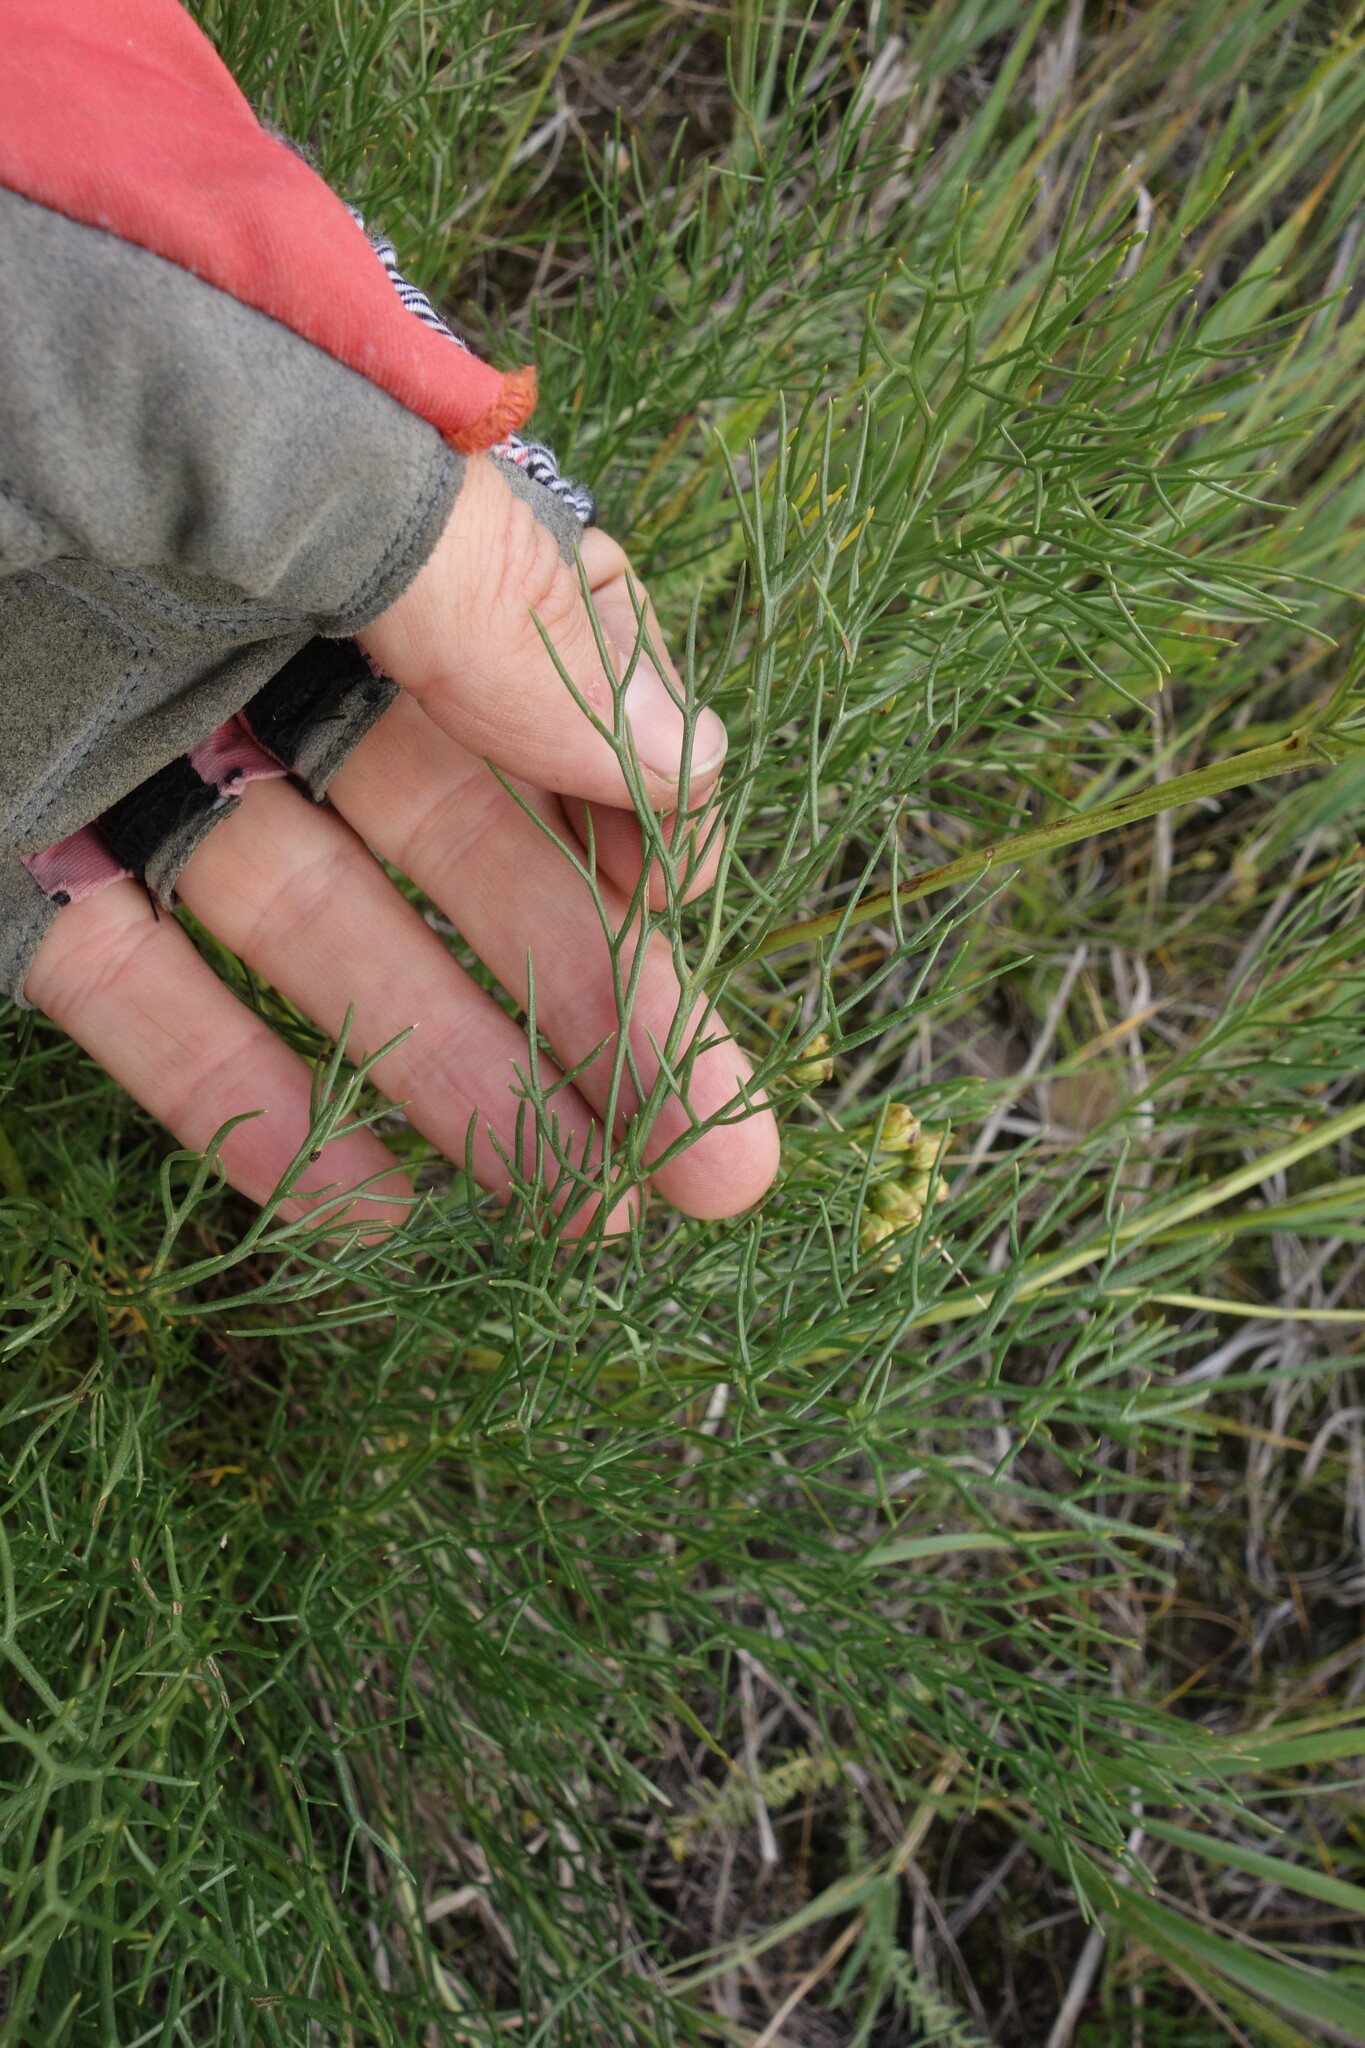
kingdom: Plantae
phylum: Tracheophyta
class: Magnoliopsida
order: Asterales
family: Asteraceae
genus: Filifolium
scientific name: Filifolium sibiricum
